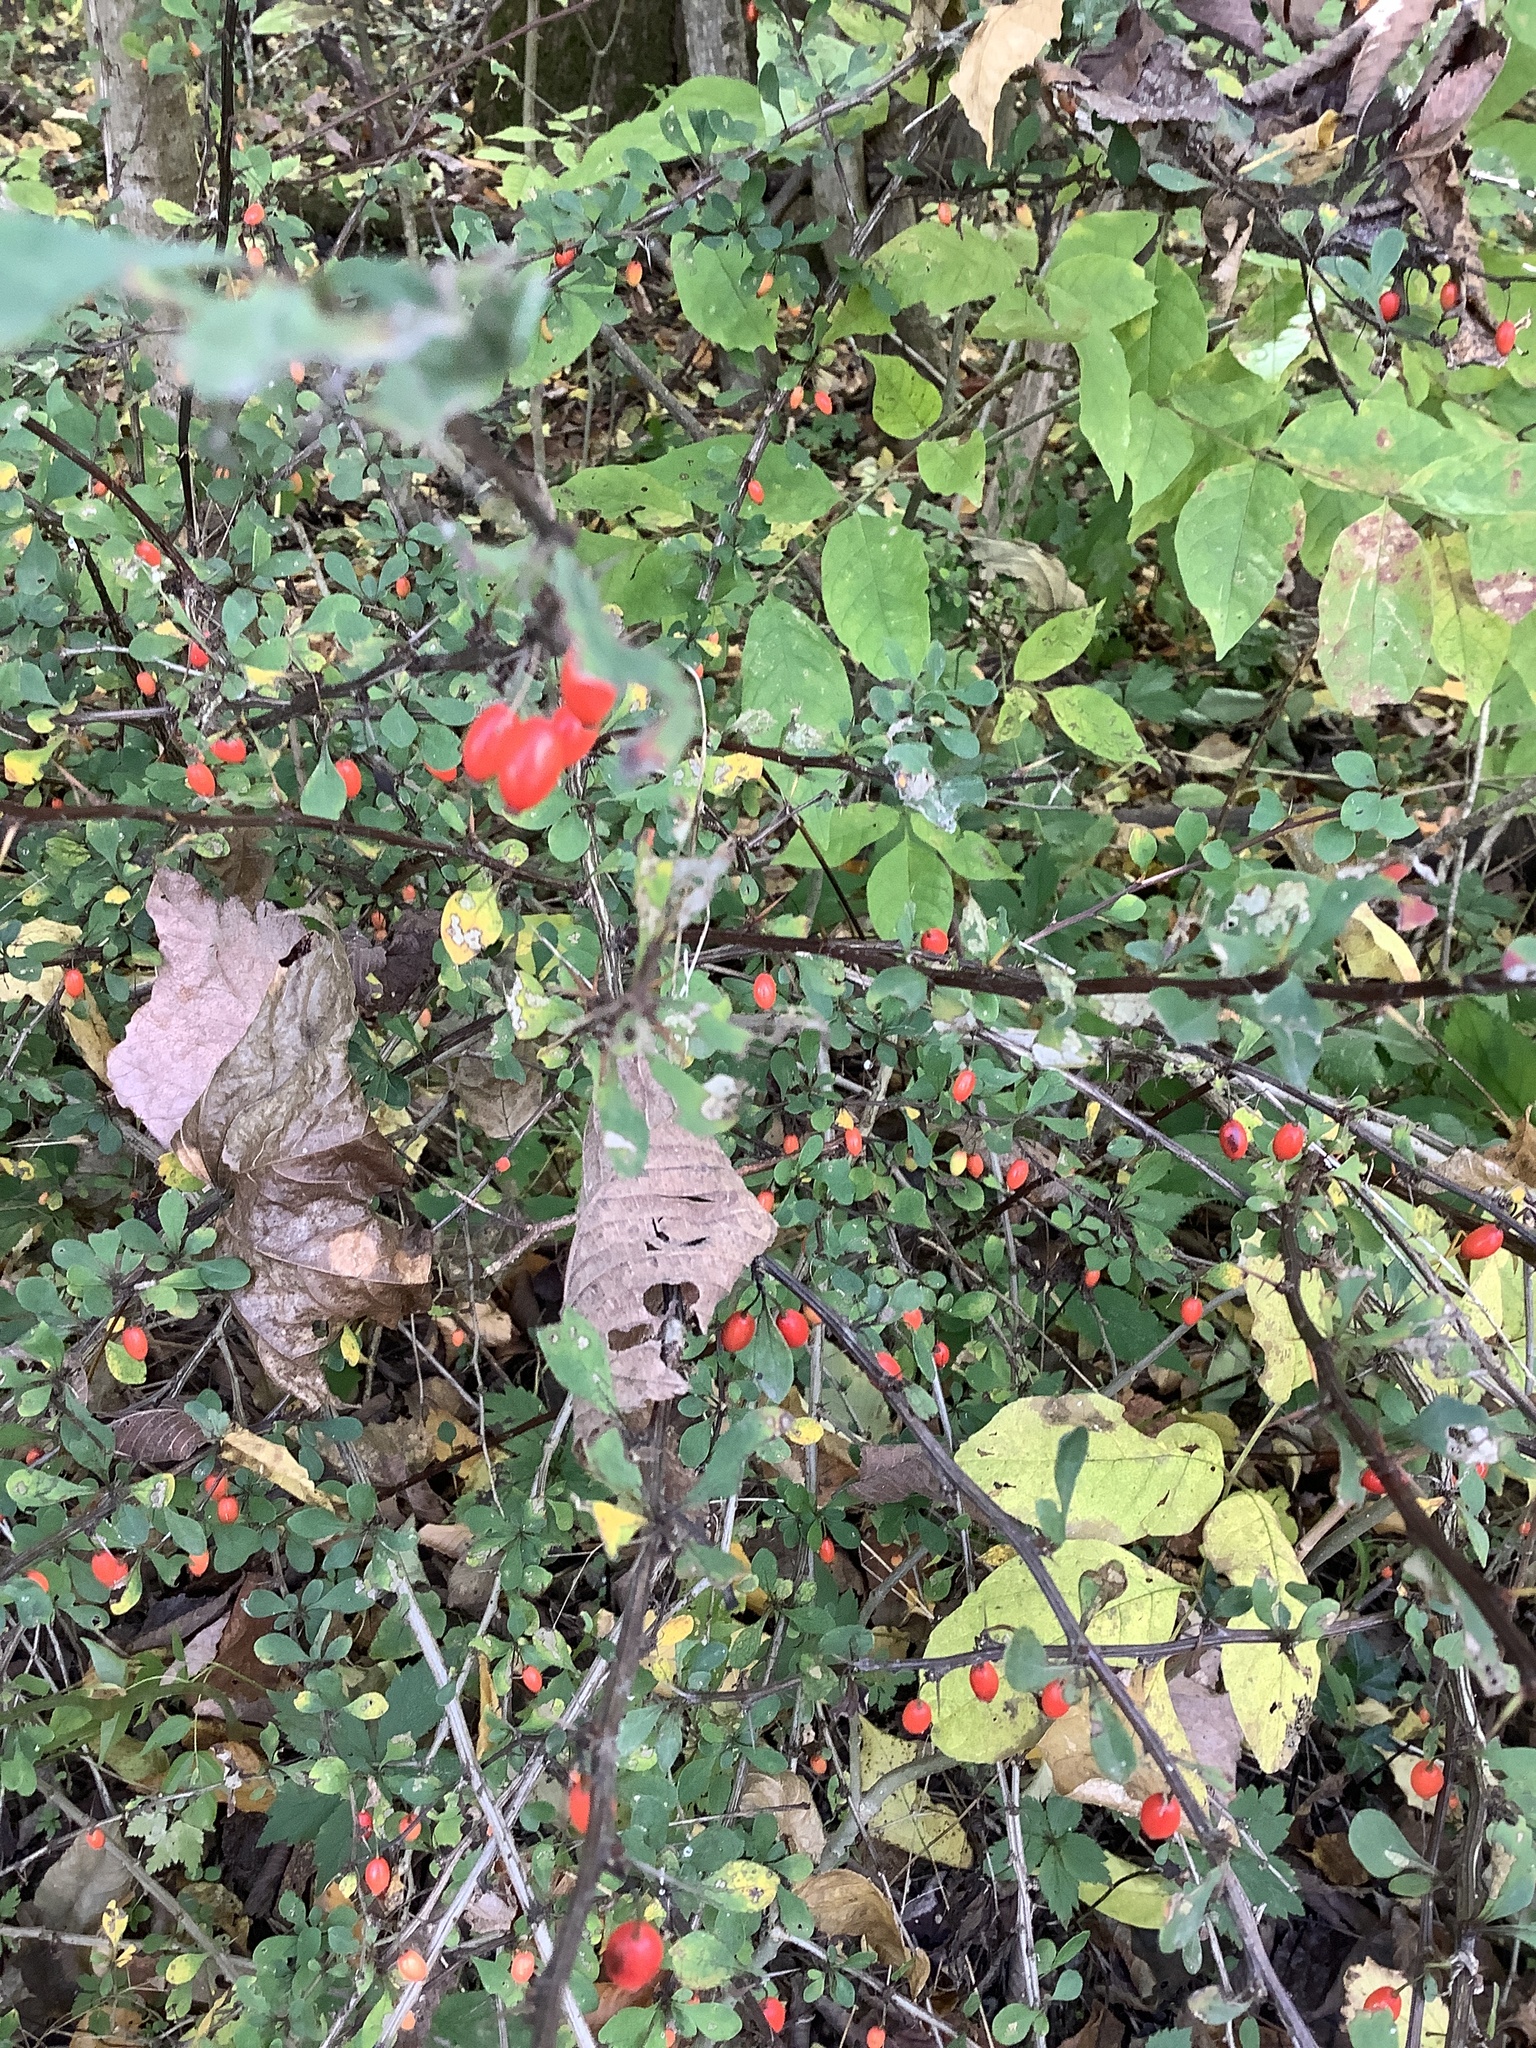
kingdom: Plantae
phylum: Tracheophyta
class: Magnoliopsida
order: Ranunculales
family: Berberidaceae
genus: Berberis
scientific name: Berberis thunbergii
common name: Japanese barberry
